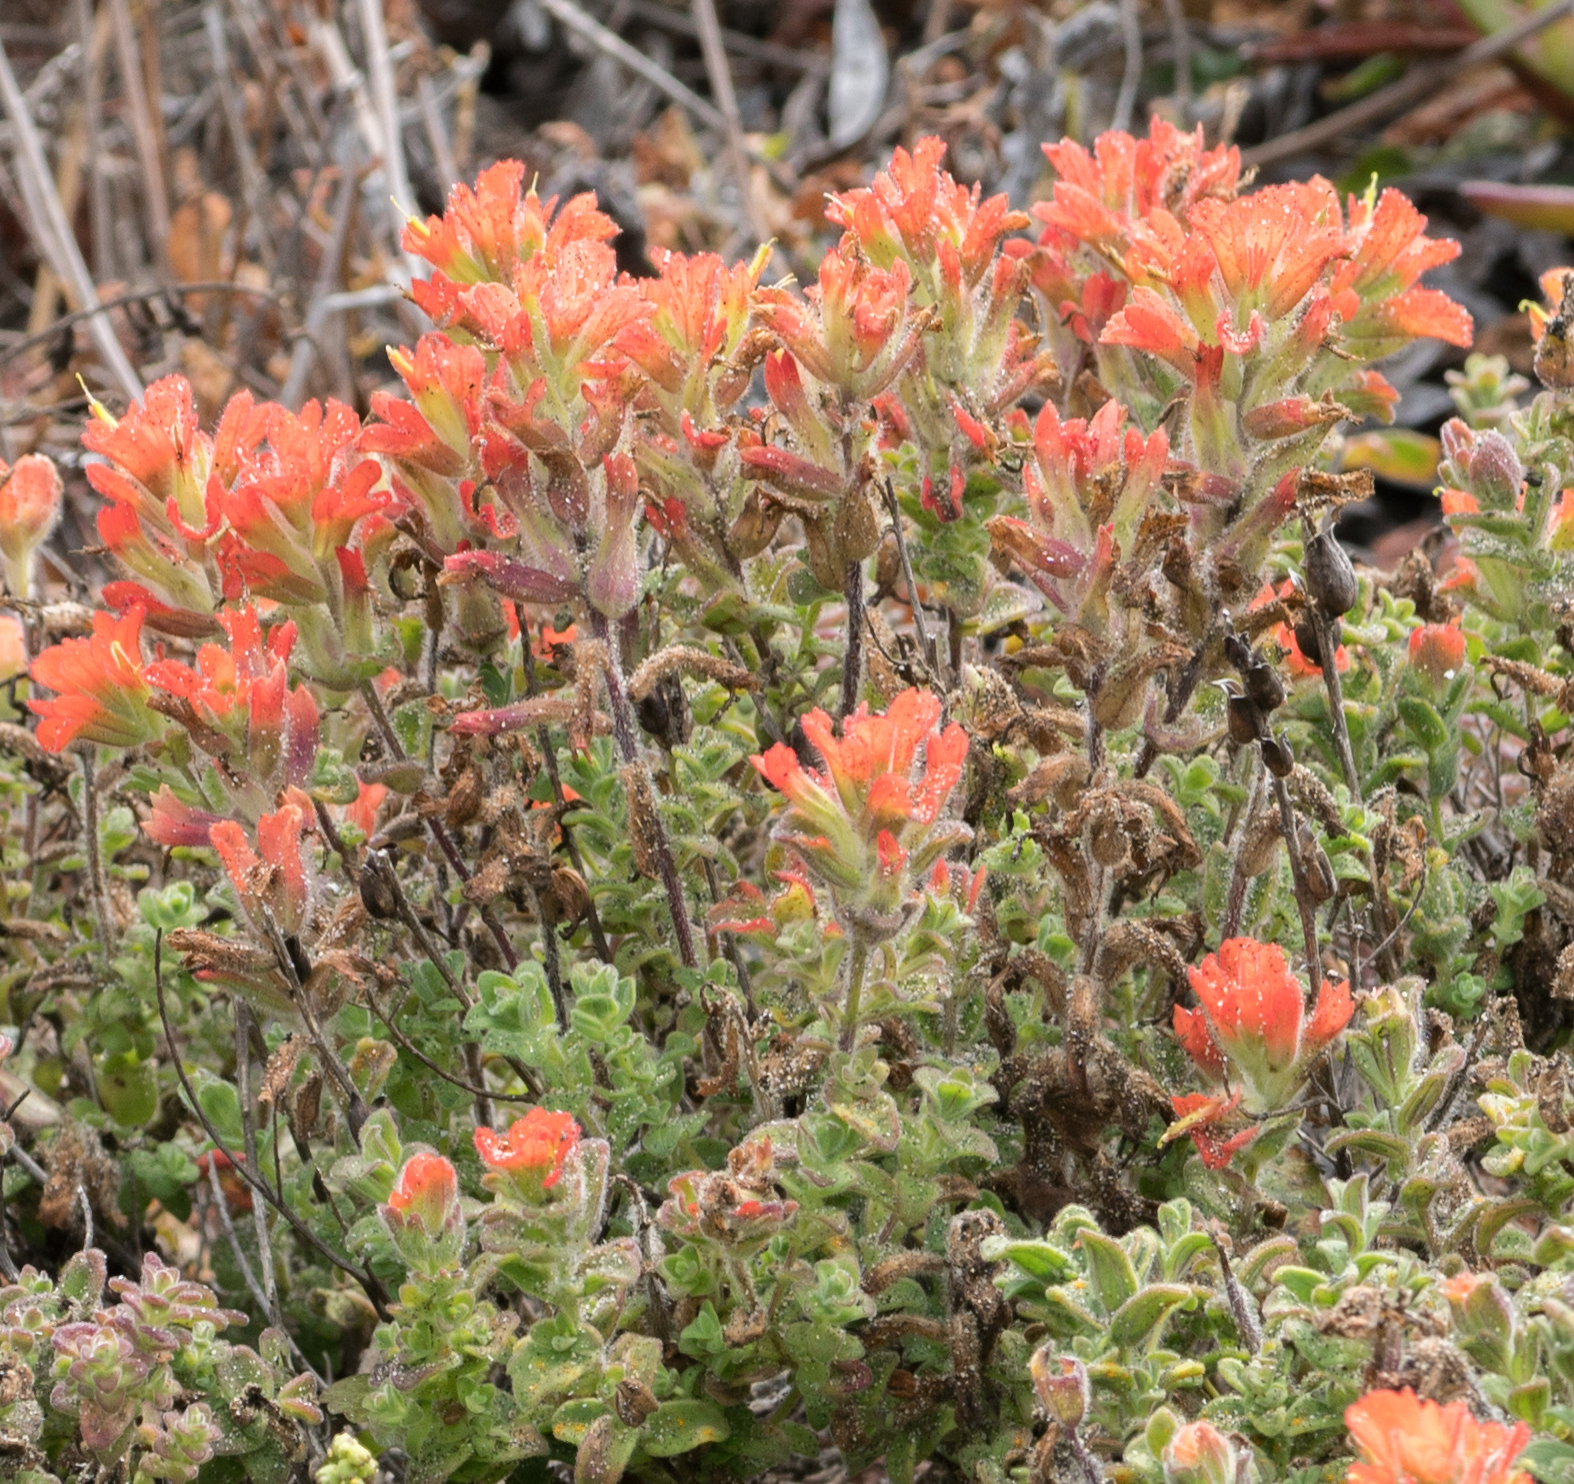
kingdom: Plantae
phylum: Tracheophyta
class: Magnoliopsida
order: Lamiales
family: Orobanchaceae
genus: Castilleja
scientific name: Castilleja latifolia
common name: Monterey indian paintbrush
